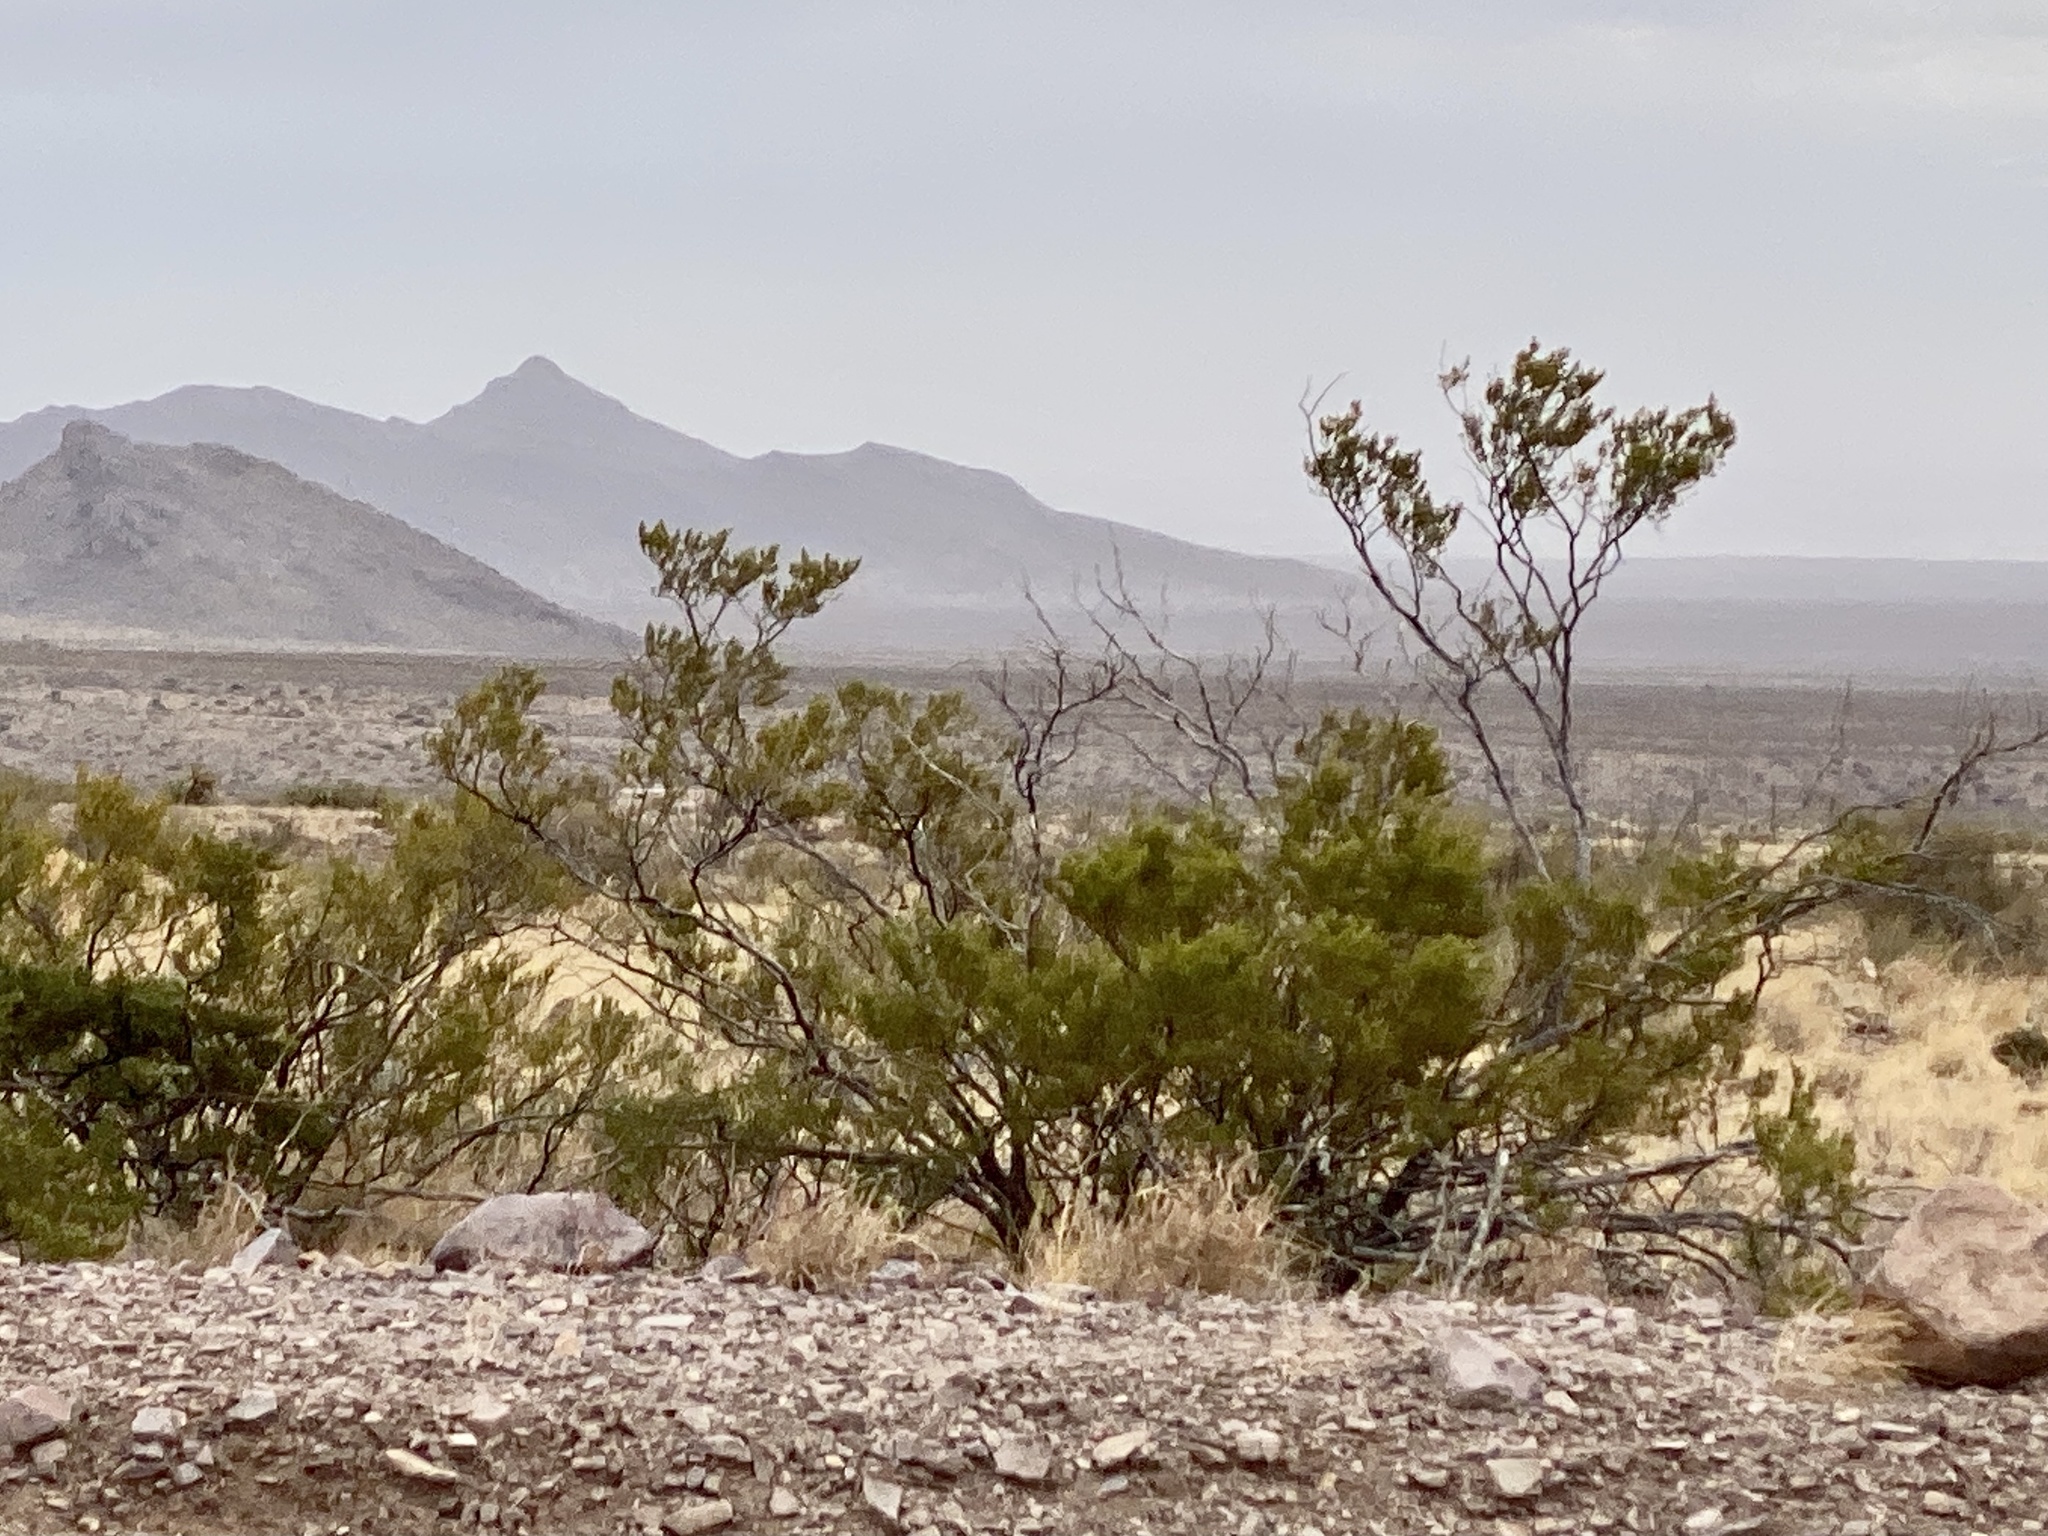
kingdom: Plantae
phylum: Tracheophyta
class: Magnoliopsida
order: Zygophyllales
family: Zygophyllaceae
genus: Larrea
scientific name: Larrea tridentata
